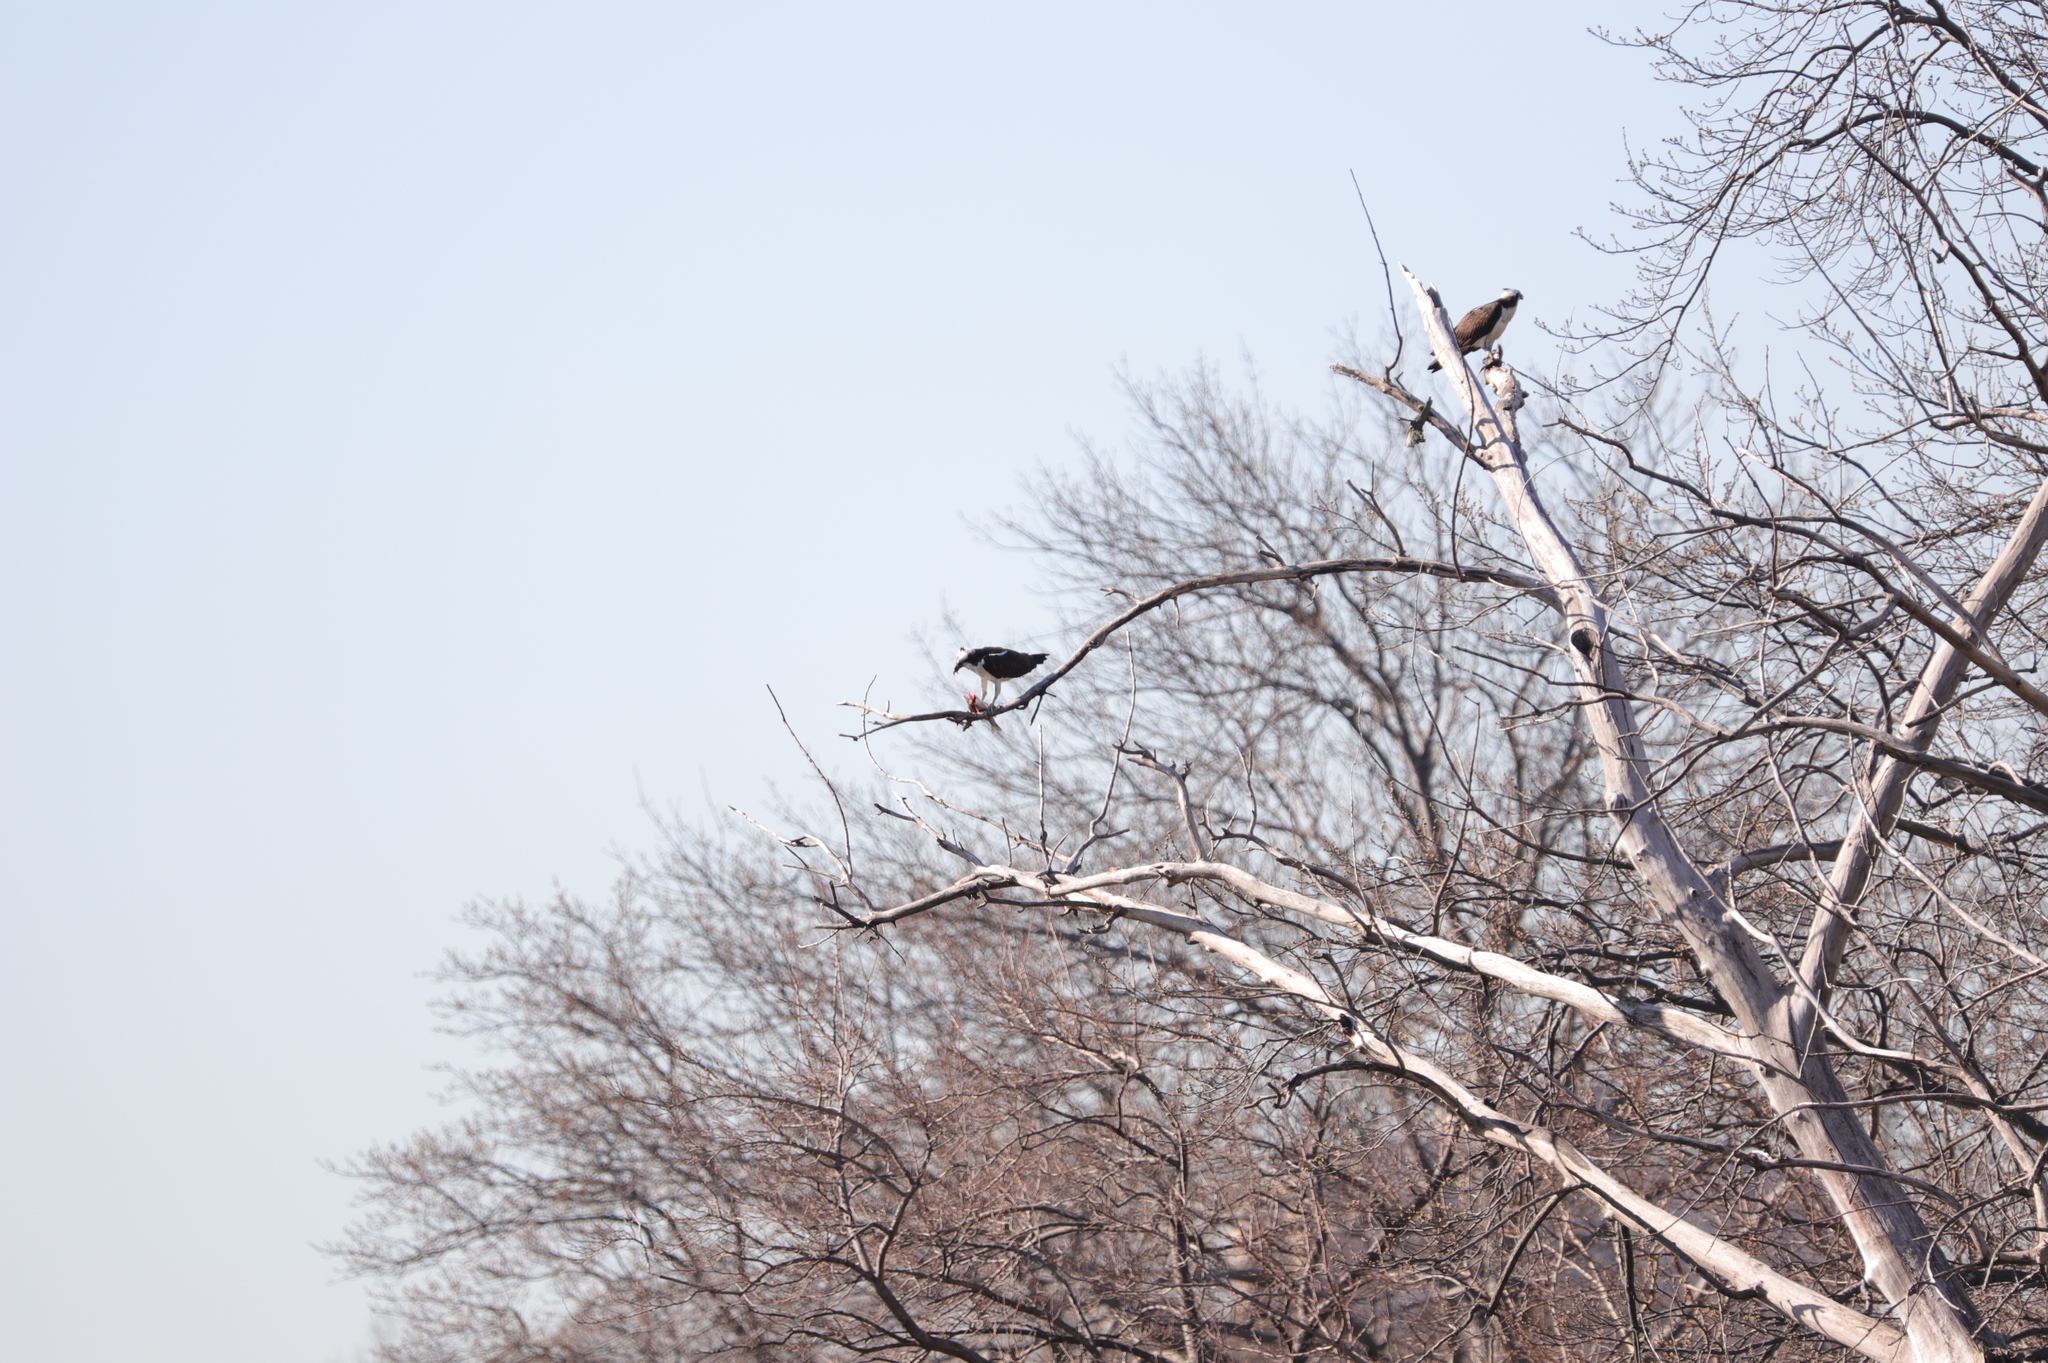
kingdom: Animalia
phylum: Chordata
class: Aves
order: Accipitriformes
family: Pandionidae
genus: Pandion
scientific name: Pandion haliaetus
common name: Osprey
